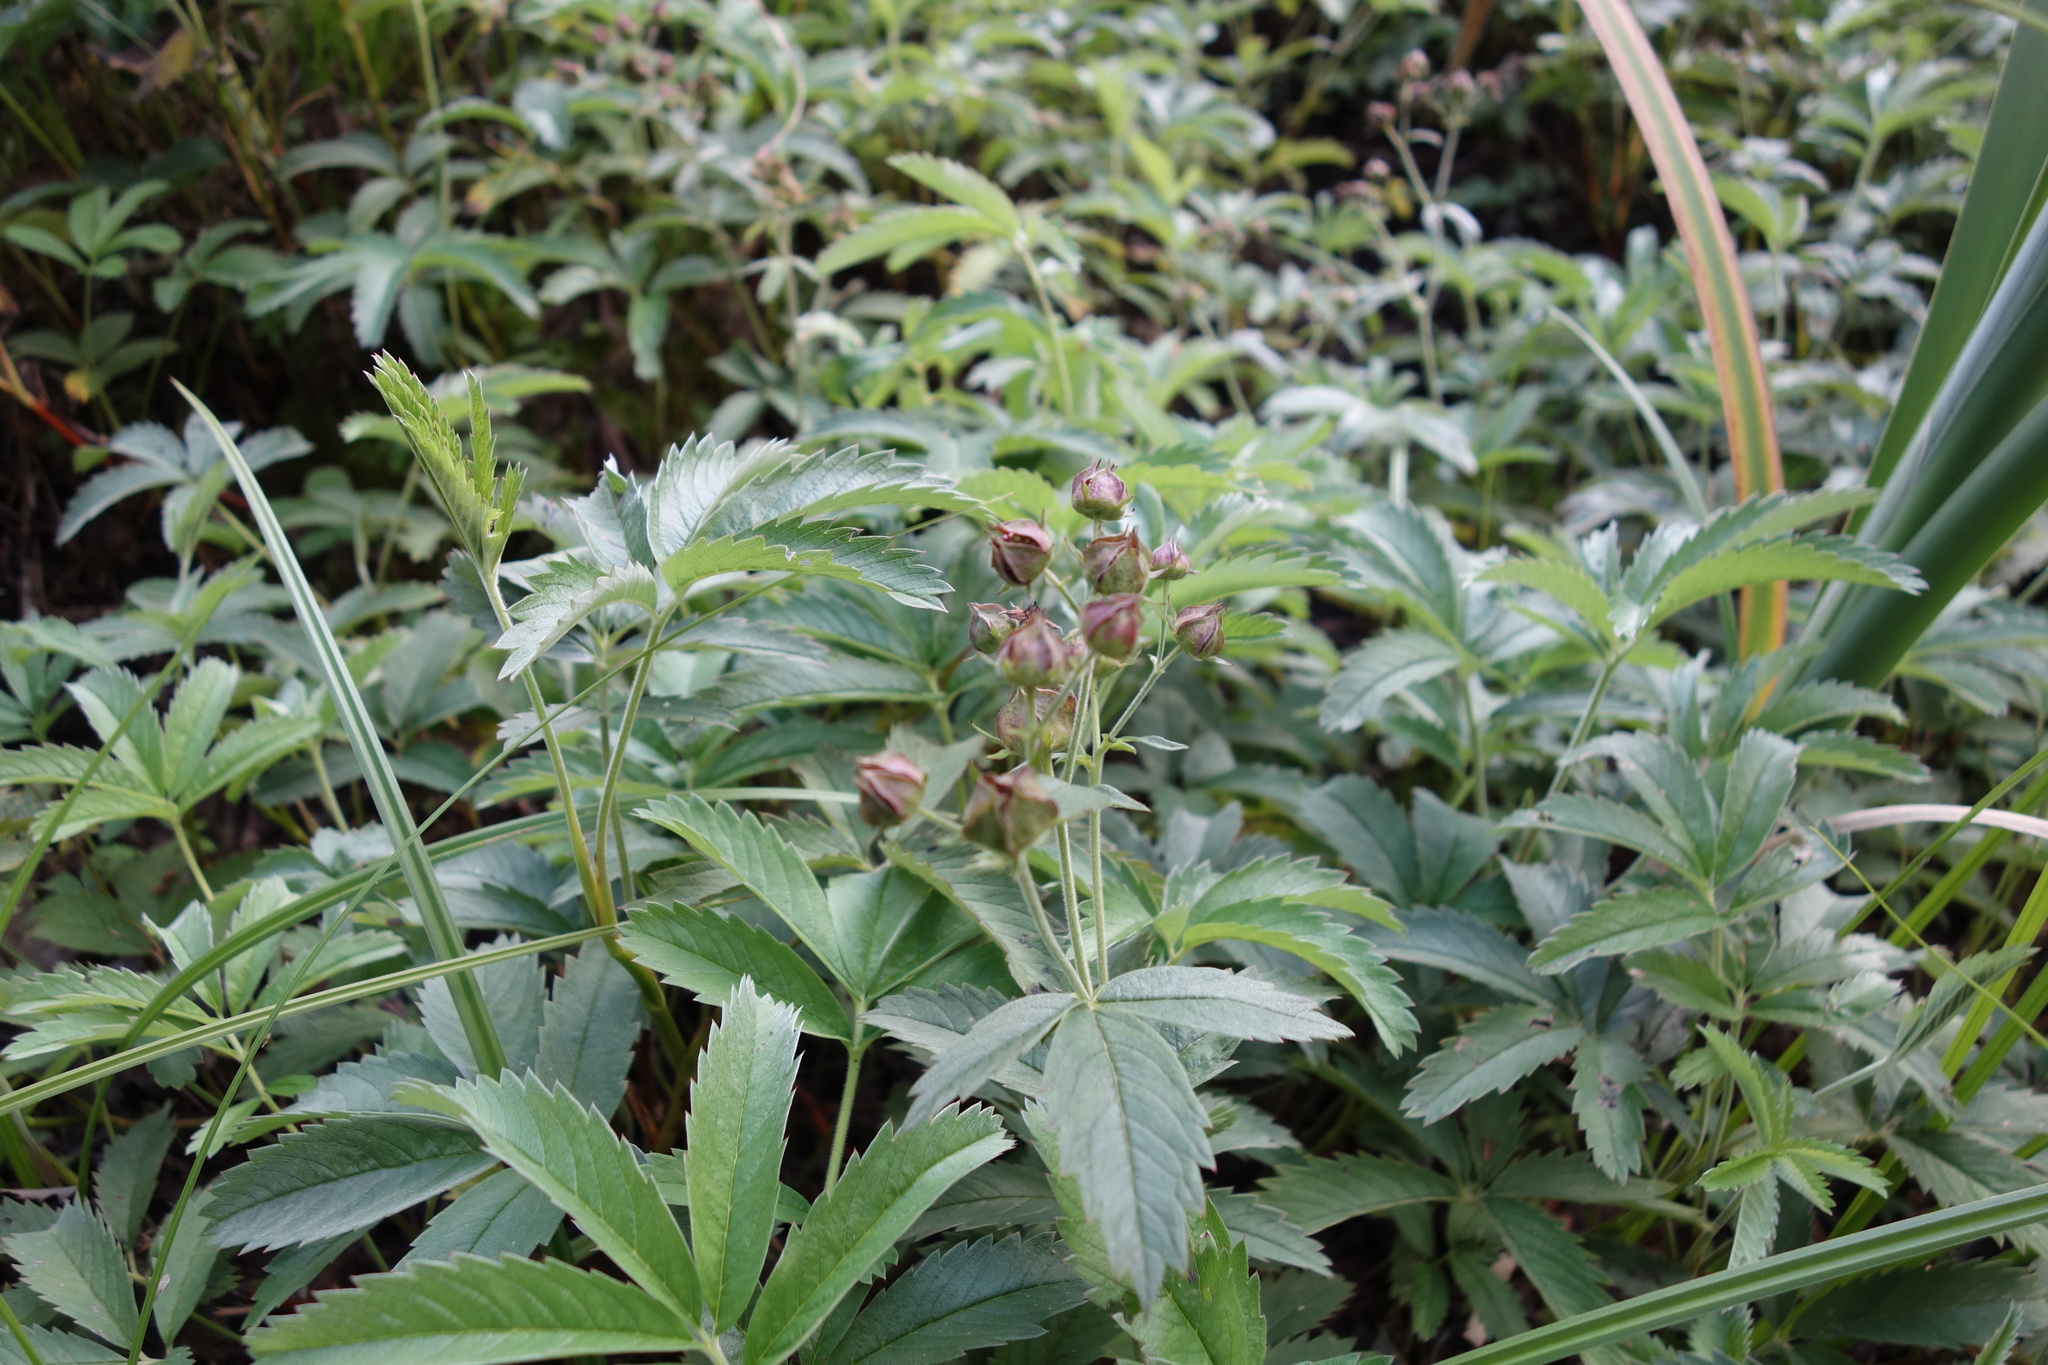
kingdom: Plantae
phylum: Tracheophyta
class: Magnoliopsida
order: Rosales
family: Rosaceae
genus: Comarum
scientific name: Comarum palustre
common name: Marsh cinquefoil
